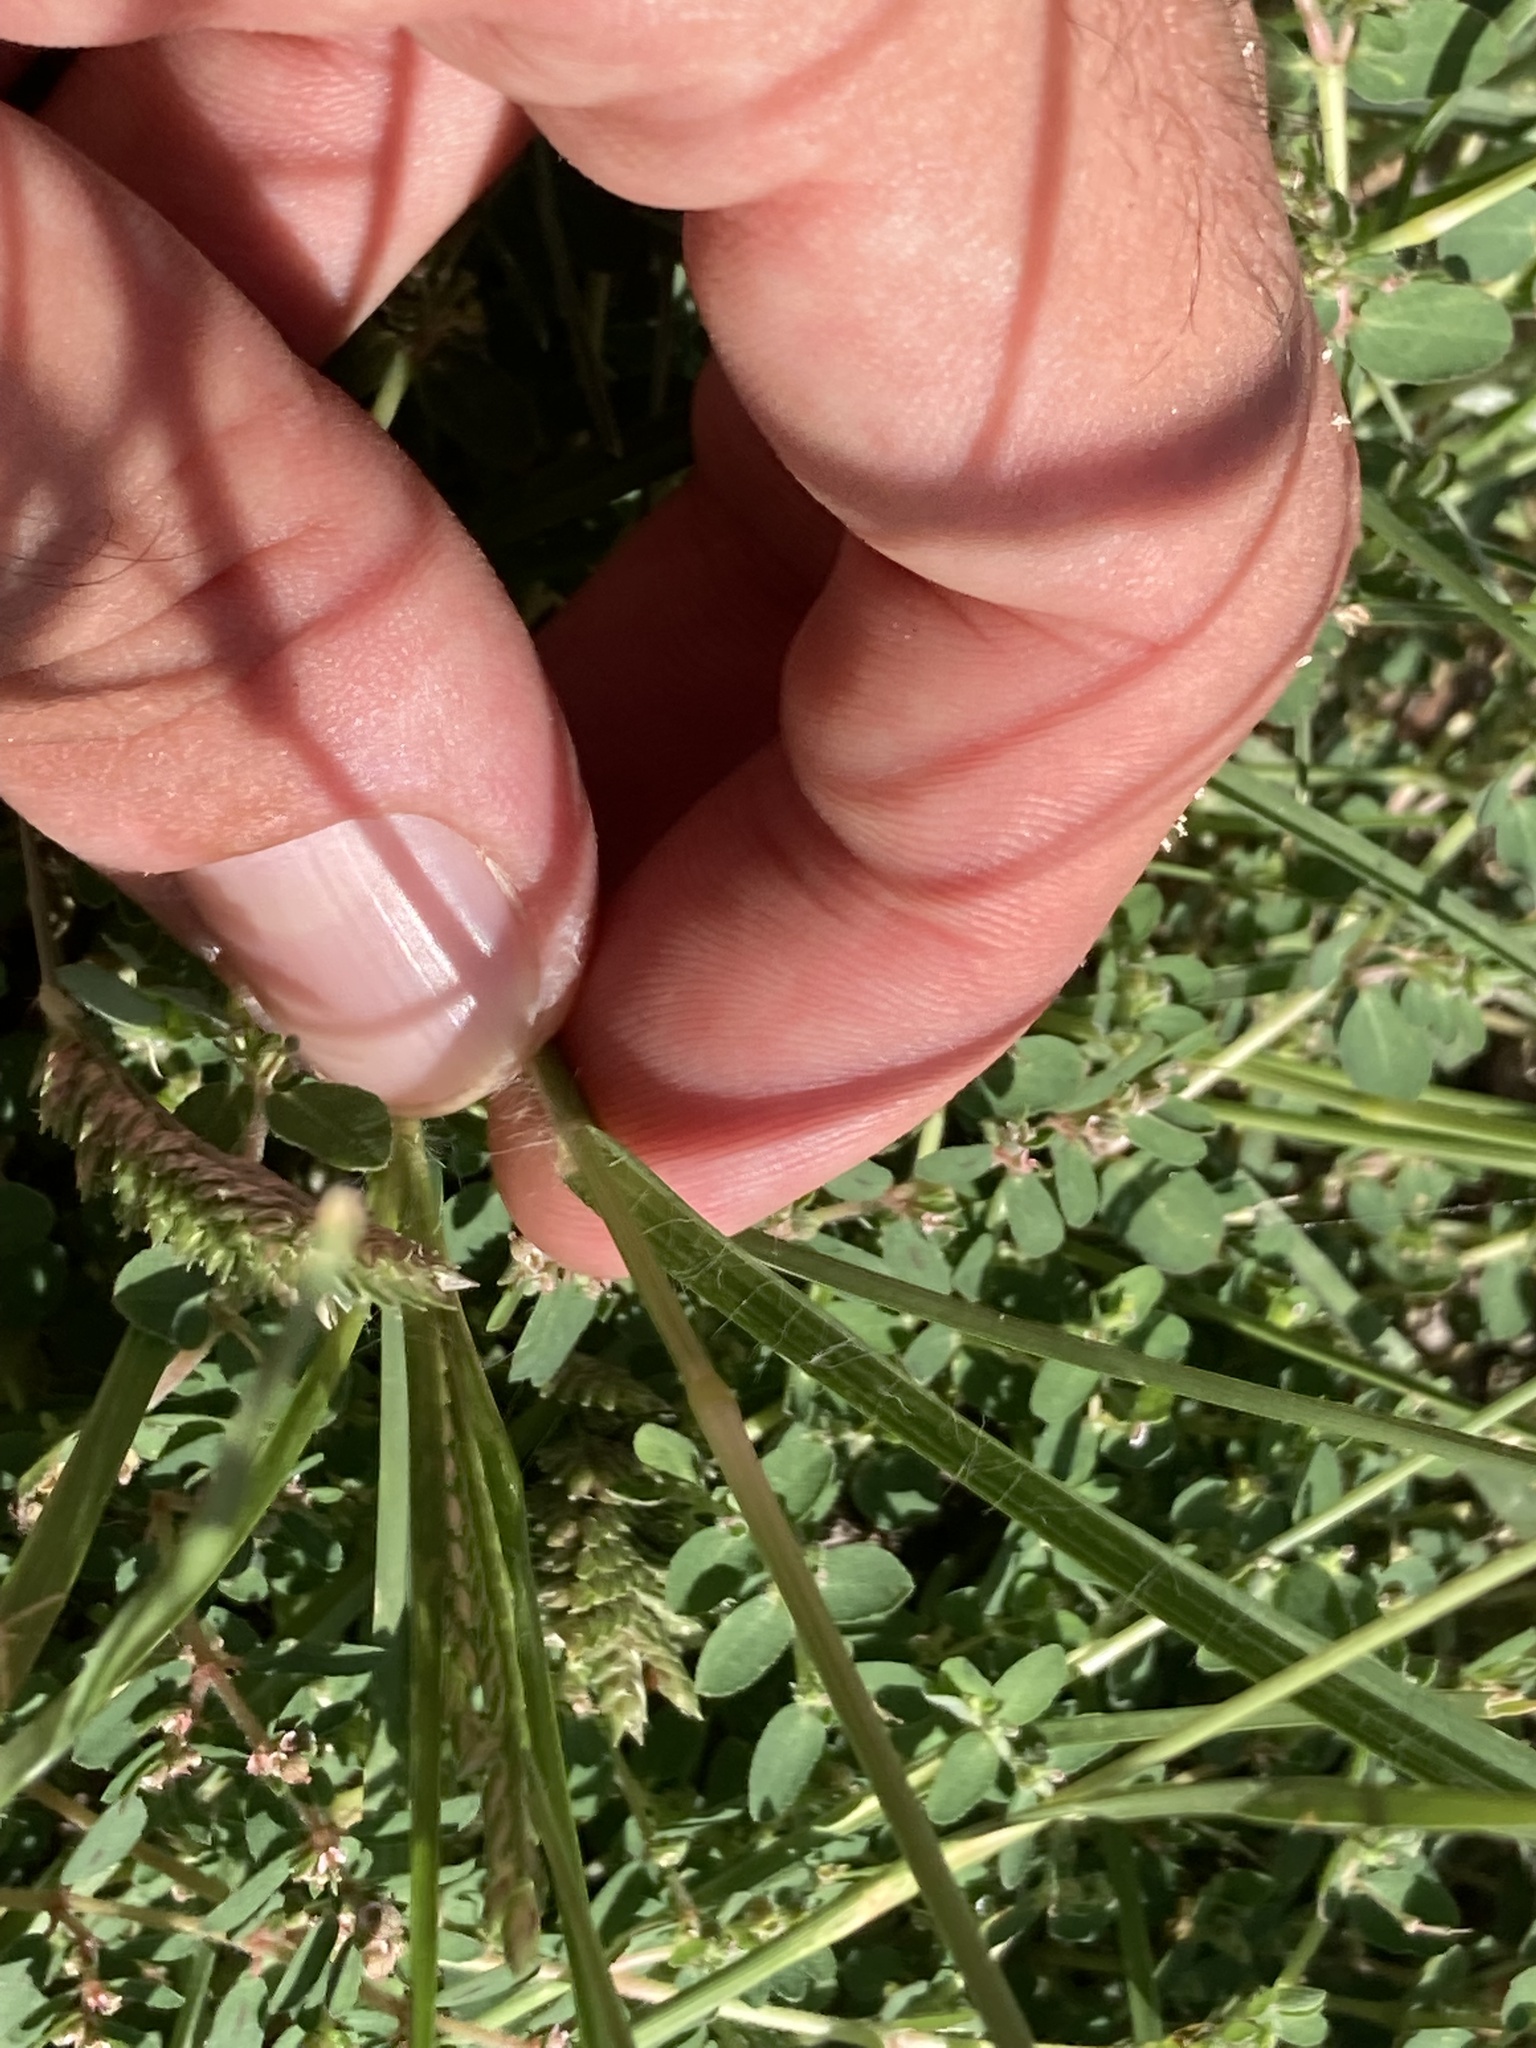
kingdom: Plantae
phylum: Tracheophyta
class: Liliopsida
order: Poales
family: Poaceae
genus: Eleusine
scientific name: Eleusine indica
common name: Yard-grass
